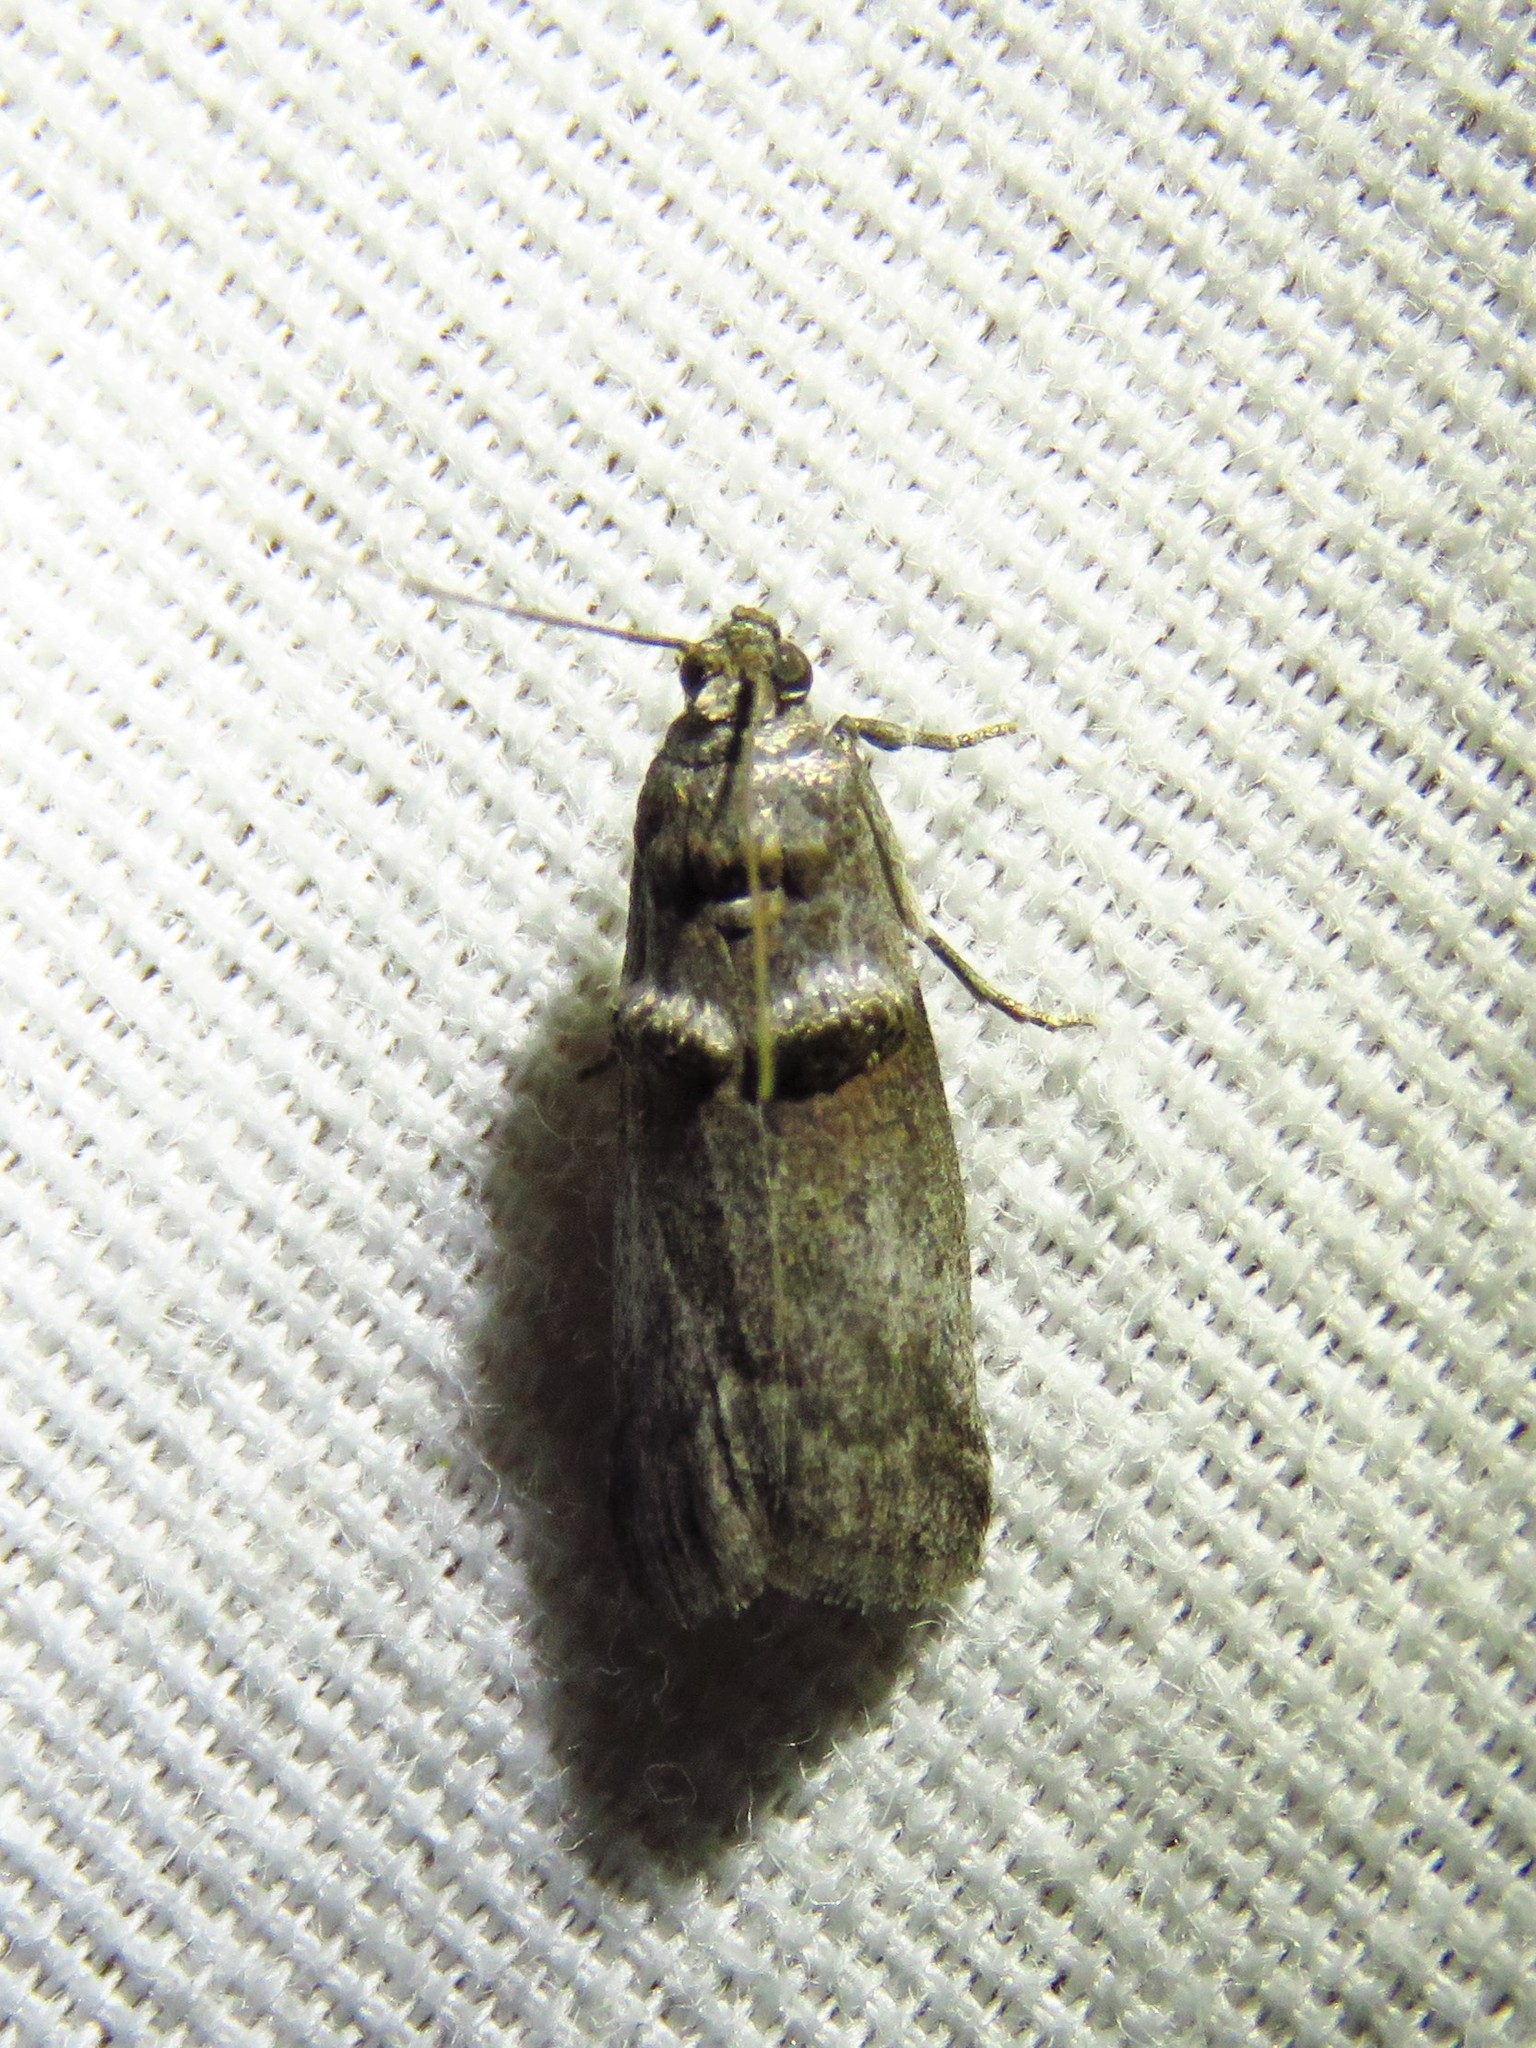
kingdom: Animalia
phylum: Arthropoda
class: Insecta
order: Lepidoptera
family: Pyralidae
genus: Acrobasis
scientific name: Acrobasis caryae
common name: Hickory shoot borer moth
